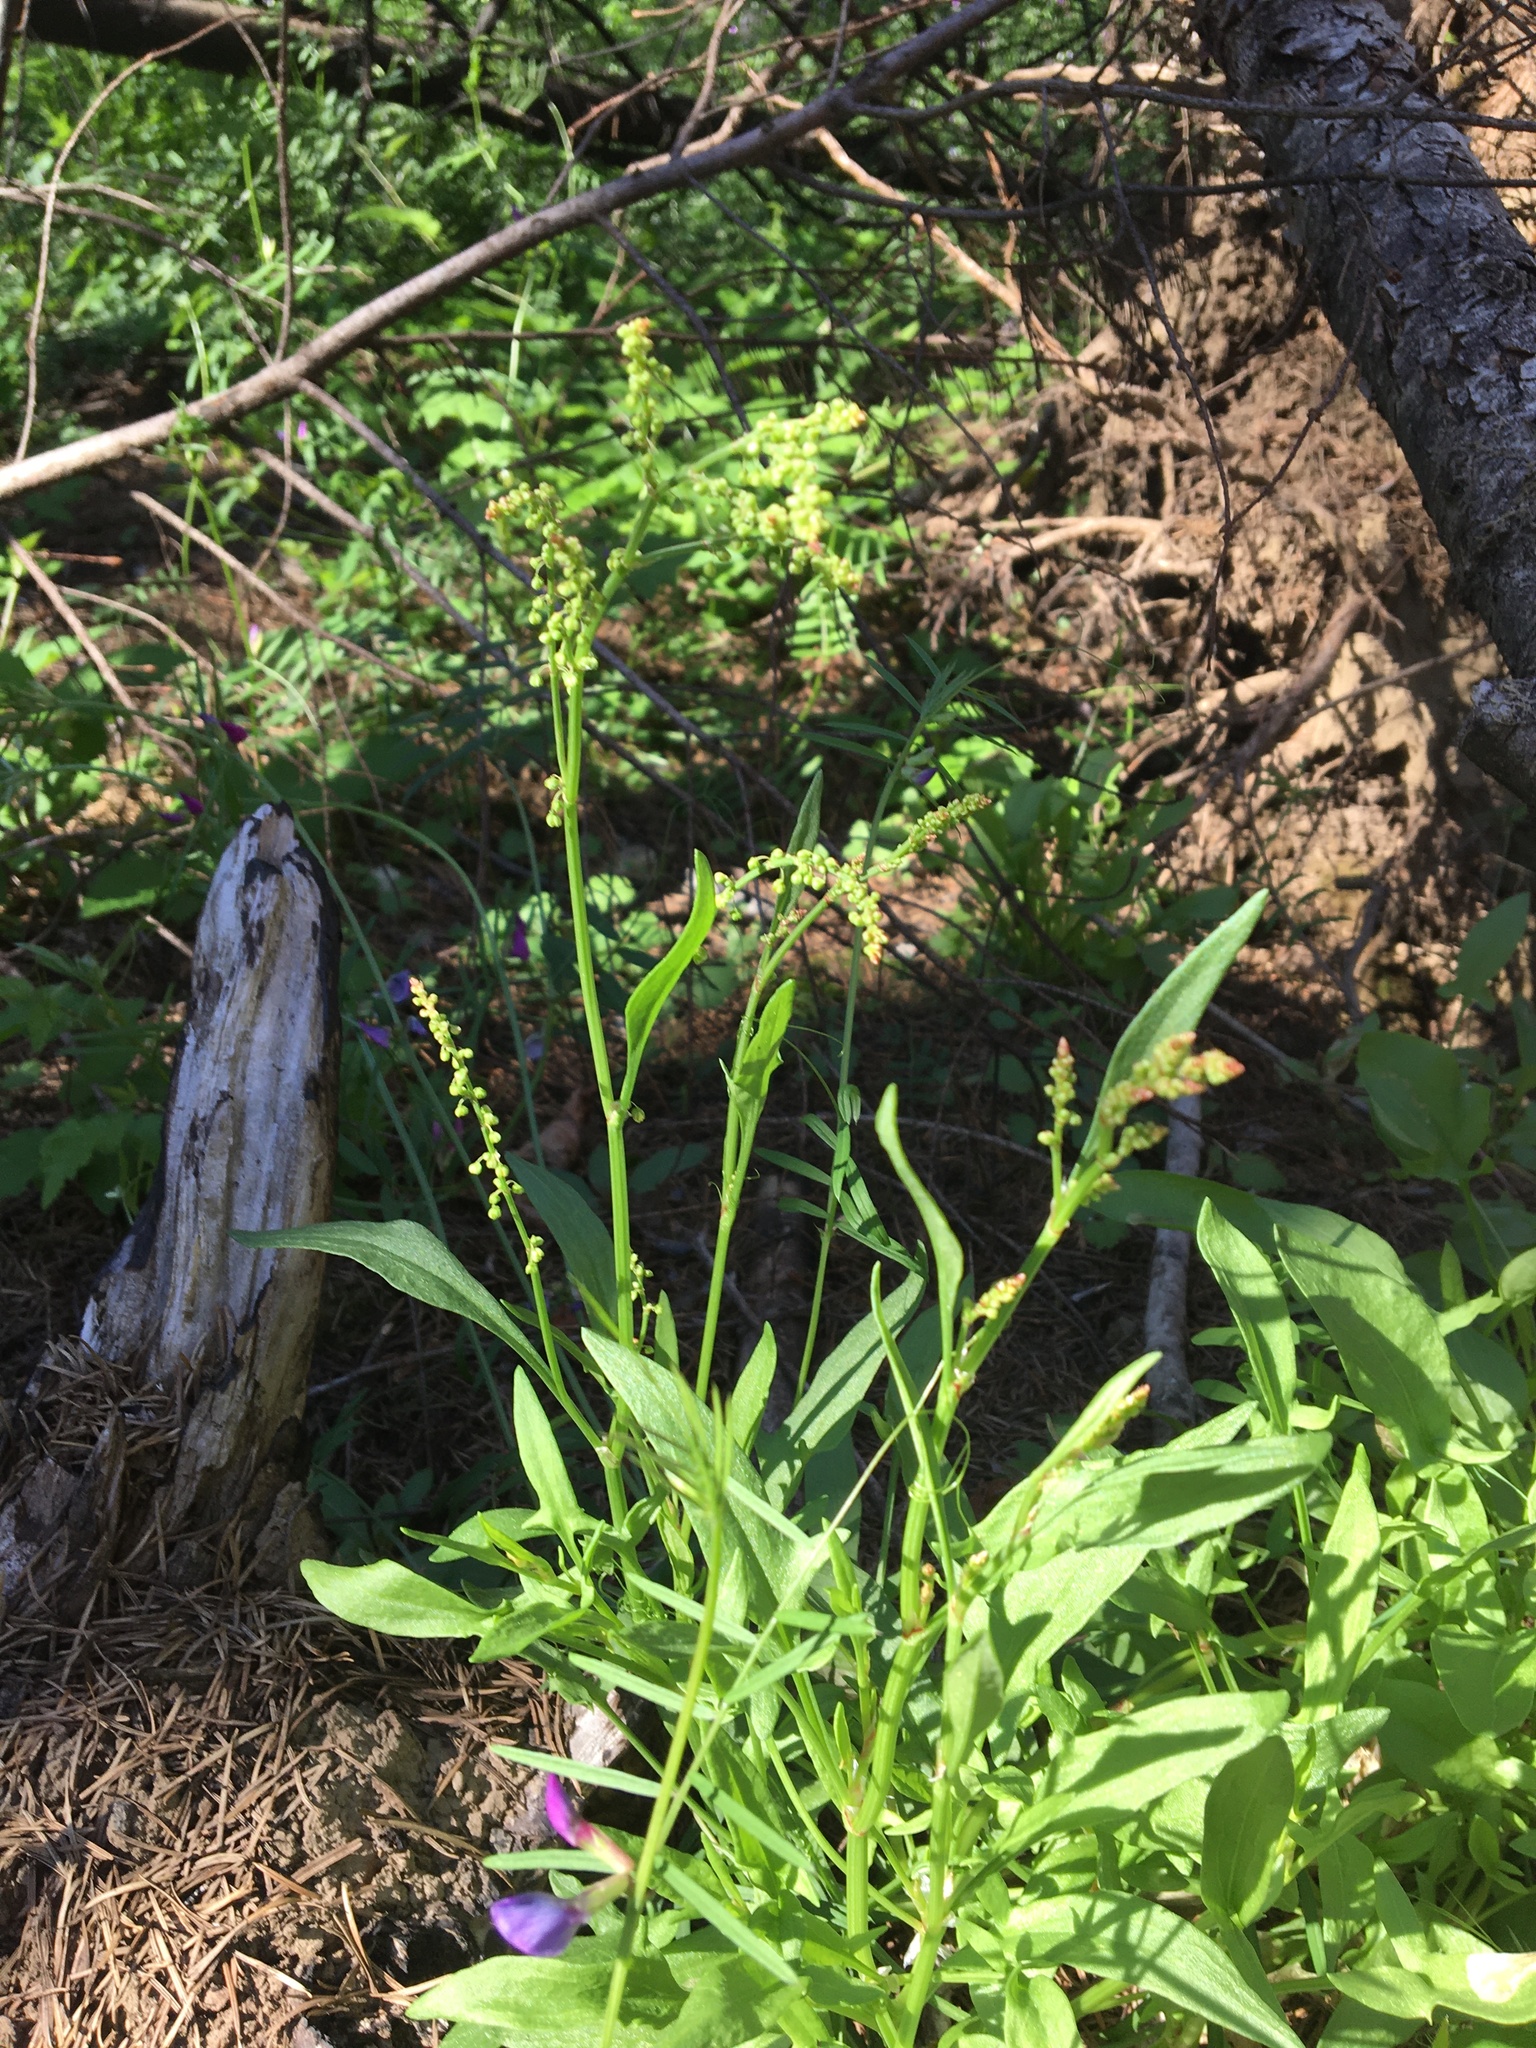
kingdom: Plantae
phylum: Tracheophyta
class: Magnoliopsida
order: Caryophyllales
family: Polygonaceae
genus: Rumex
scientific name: Rumex acetosella
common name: Common sheep sorrel
